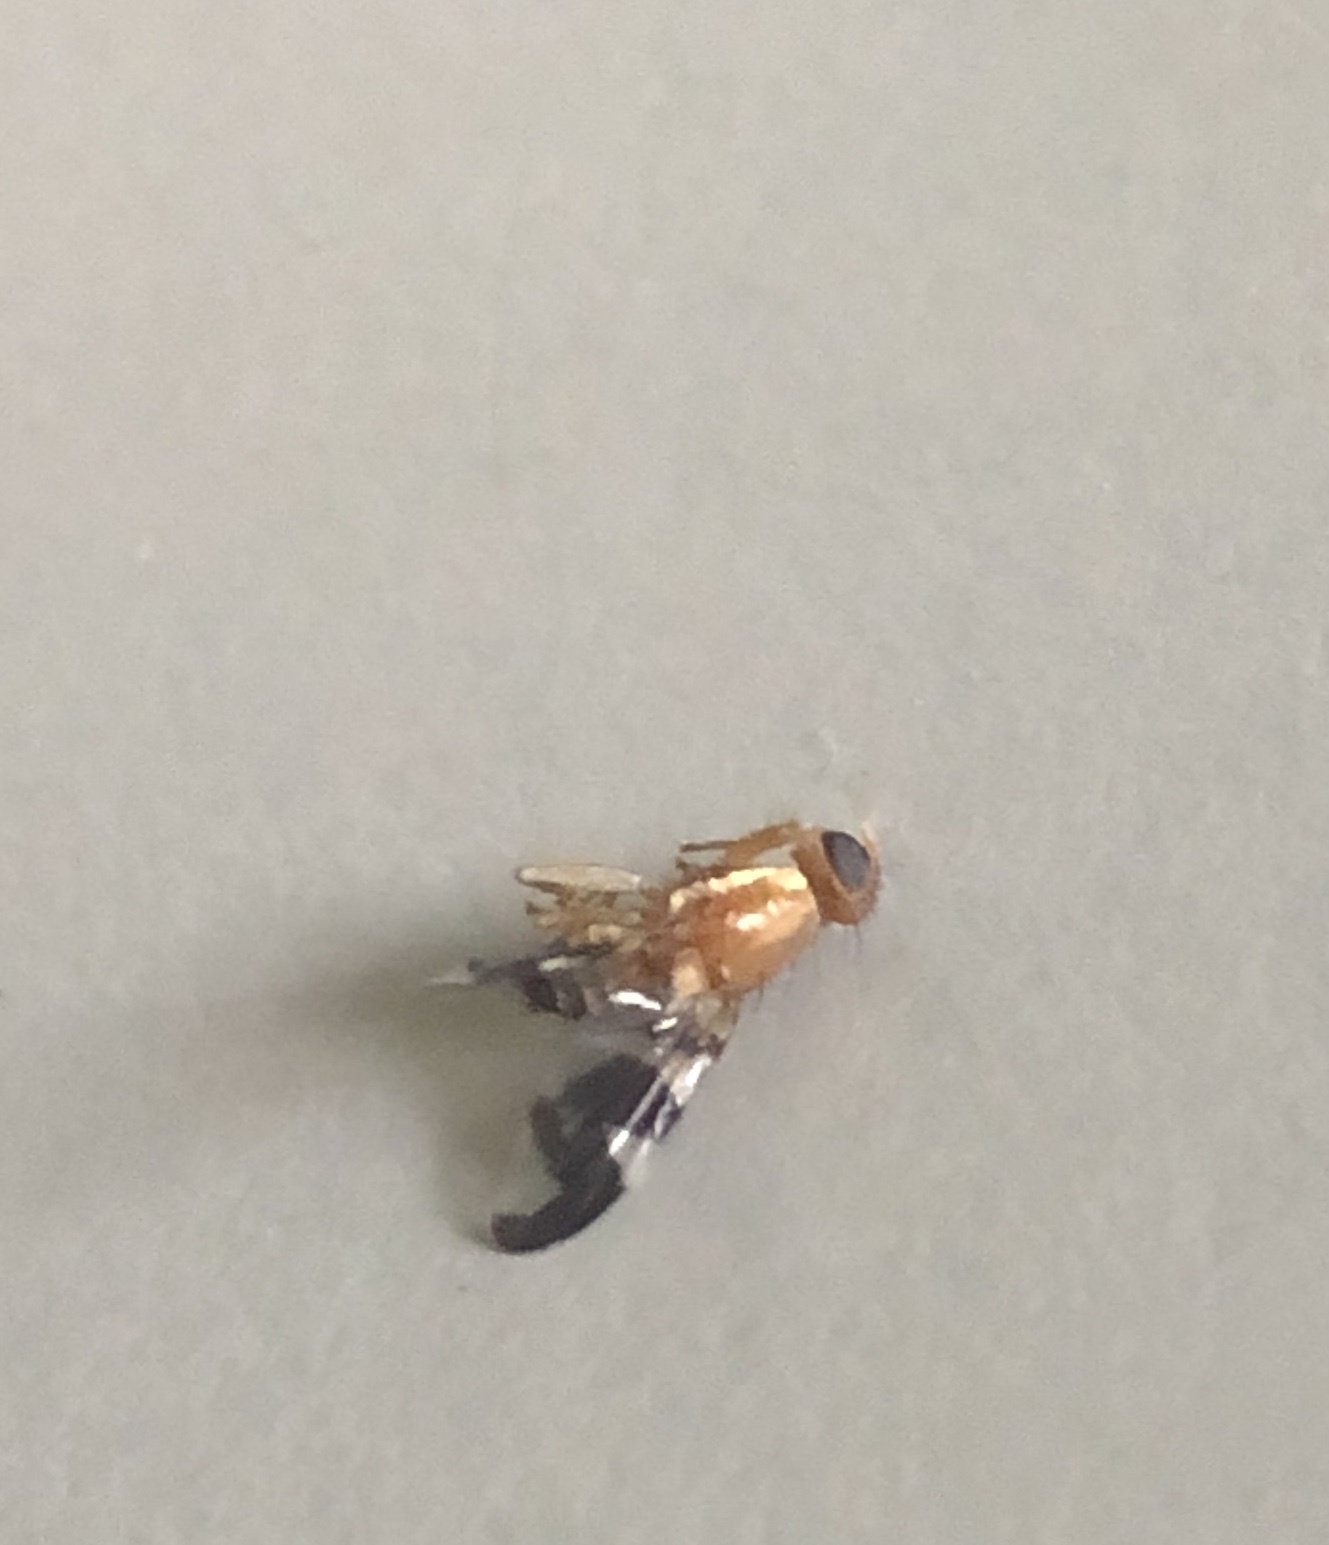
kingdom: Animalia
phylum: Arthropoda
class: Insecta
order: Diptera
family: Tephritidae
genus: Rhagoletis
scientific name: Rhagoletis suavis
